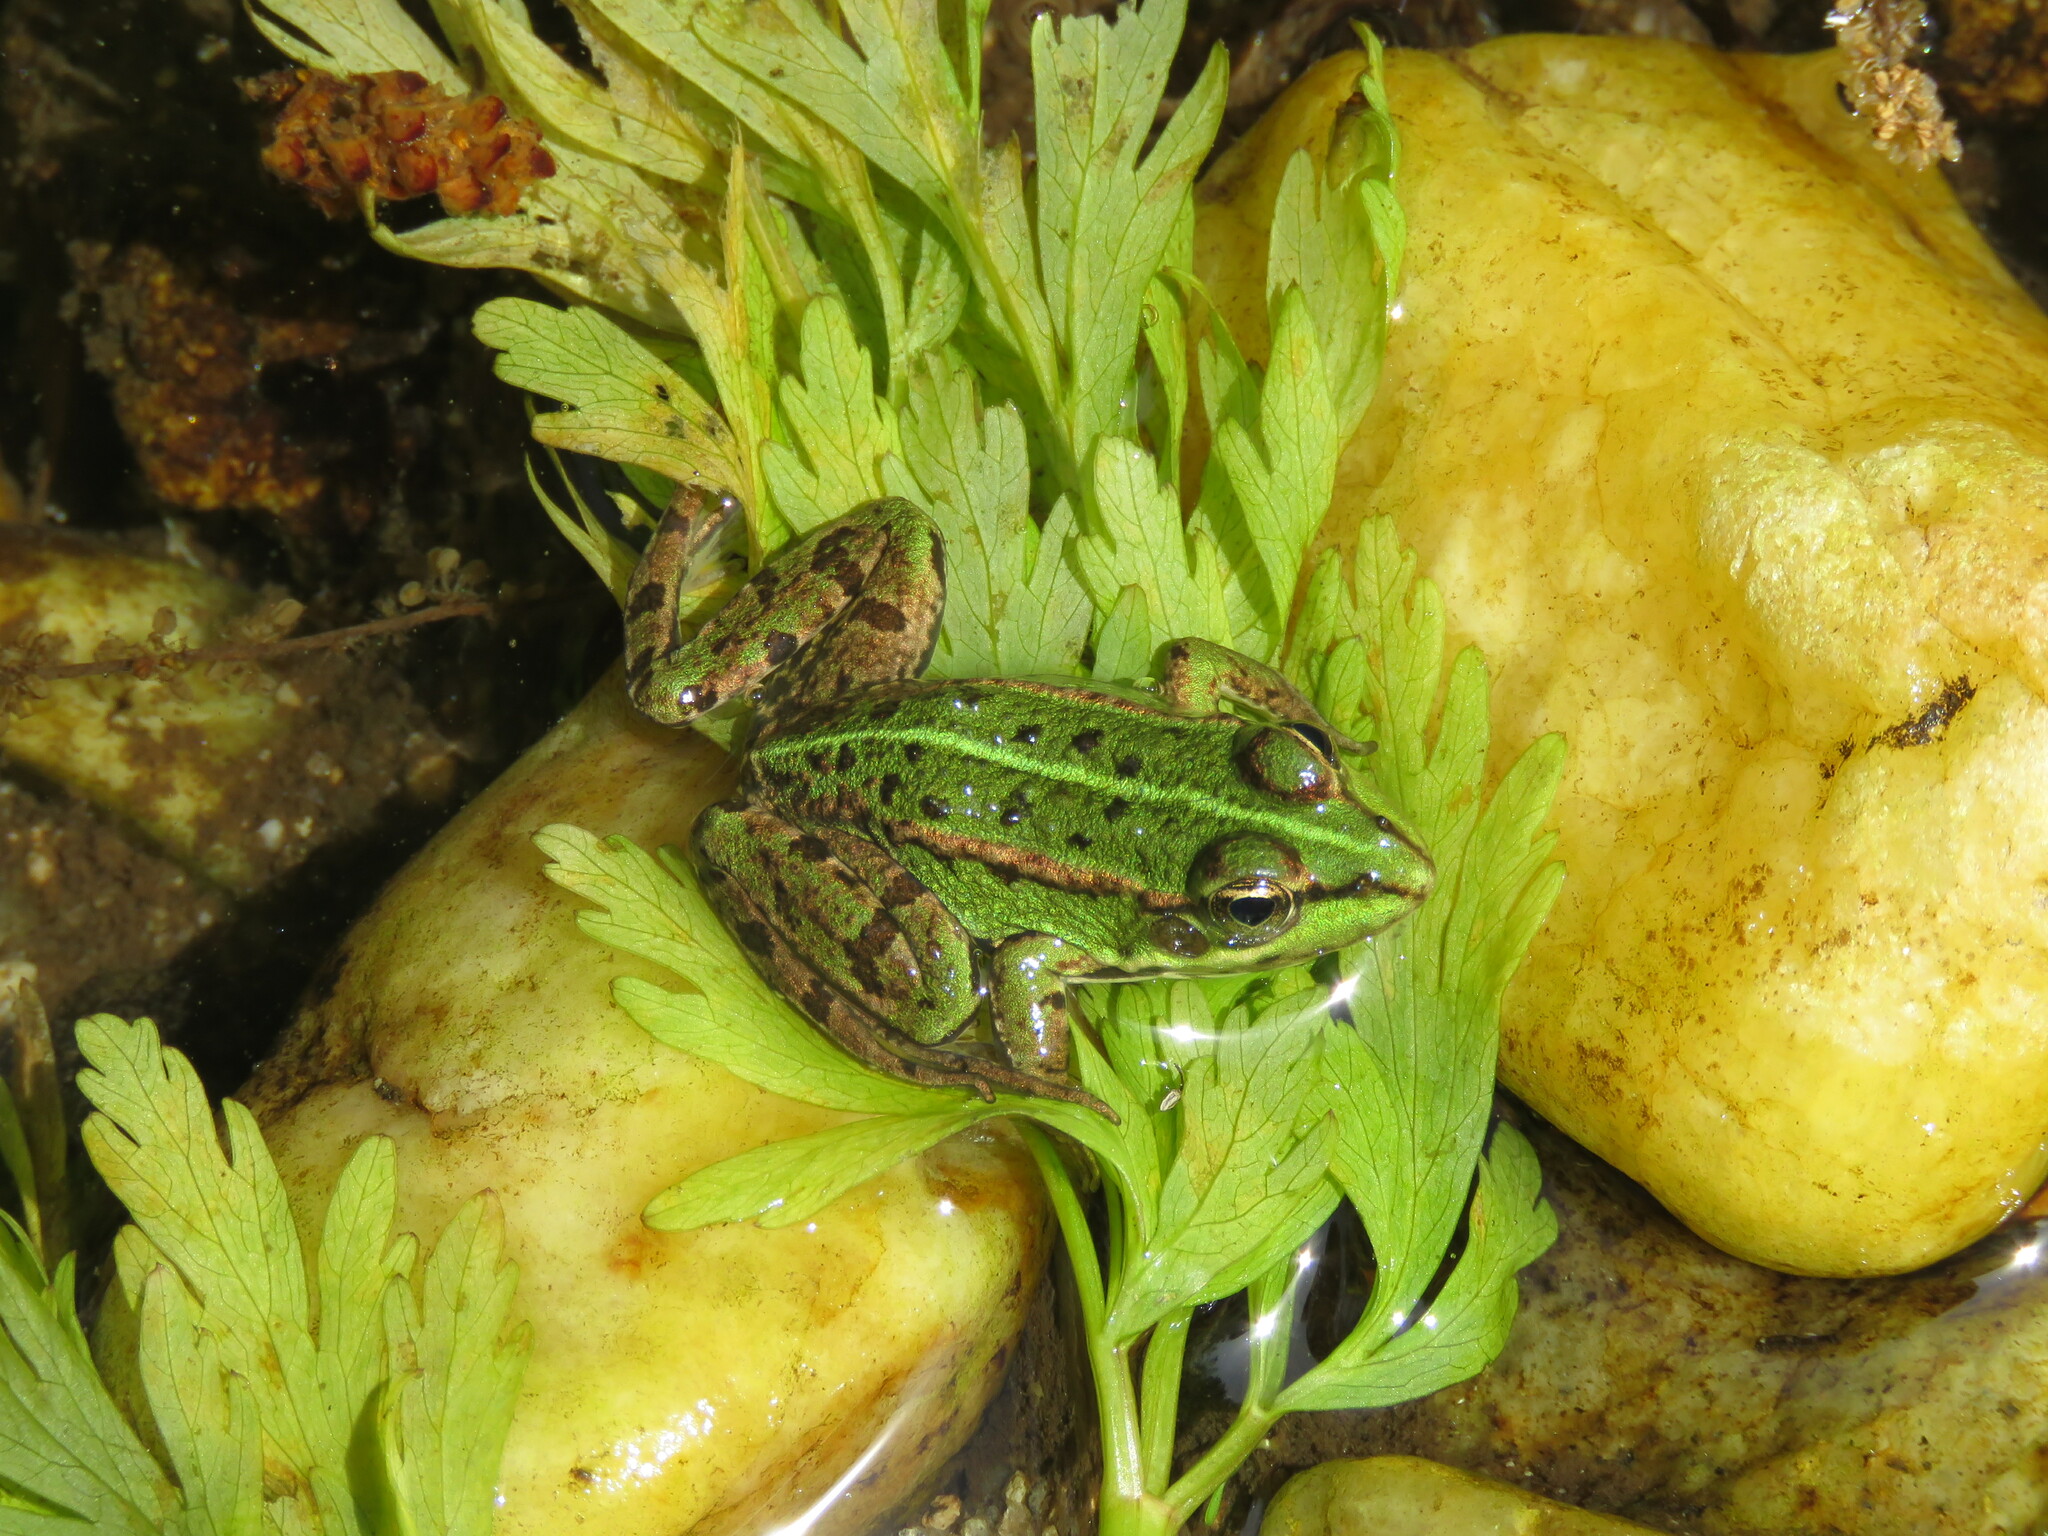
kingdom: Animalia
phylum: Chordata
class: Amphibia
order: Anura
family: Ranidae
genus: Pelophylax
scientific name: Pelophylax perezi
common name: Perez's frog
